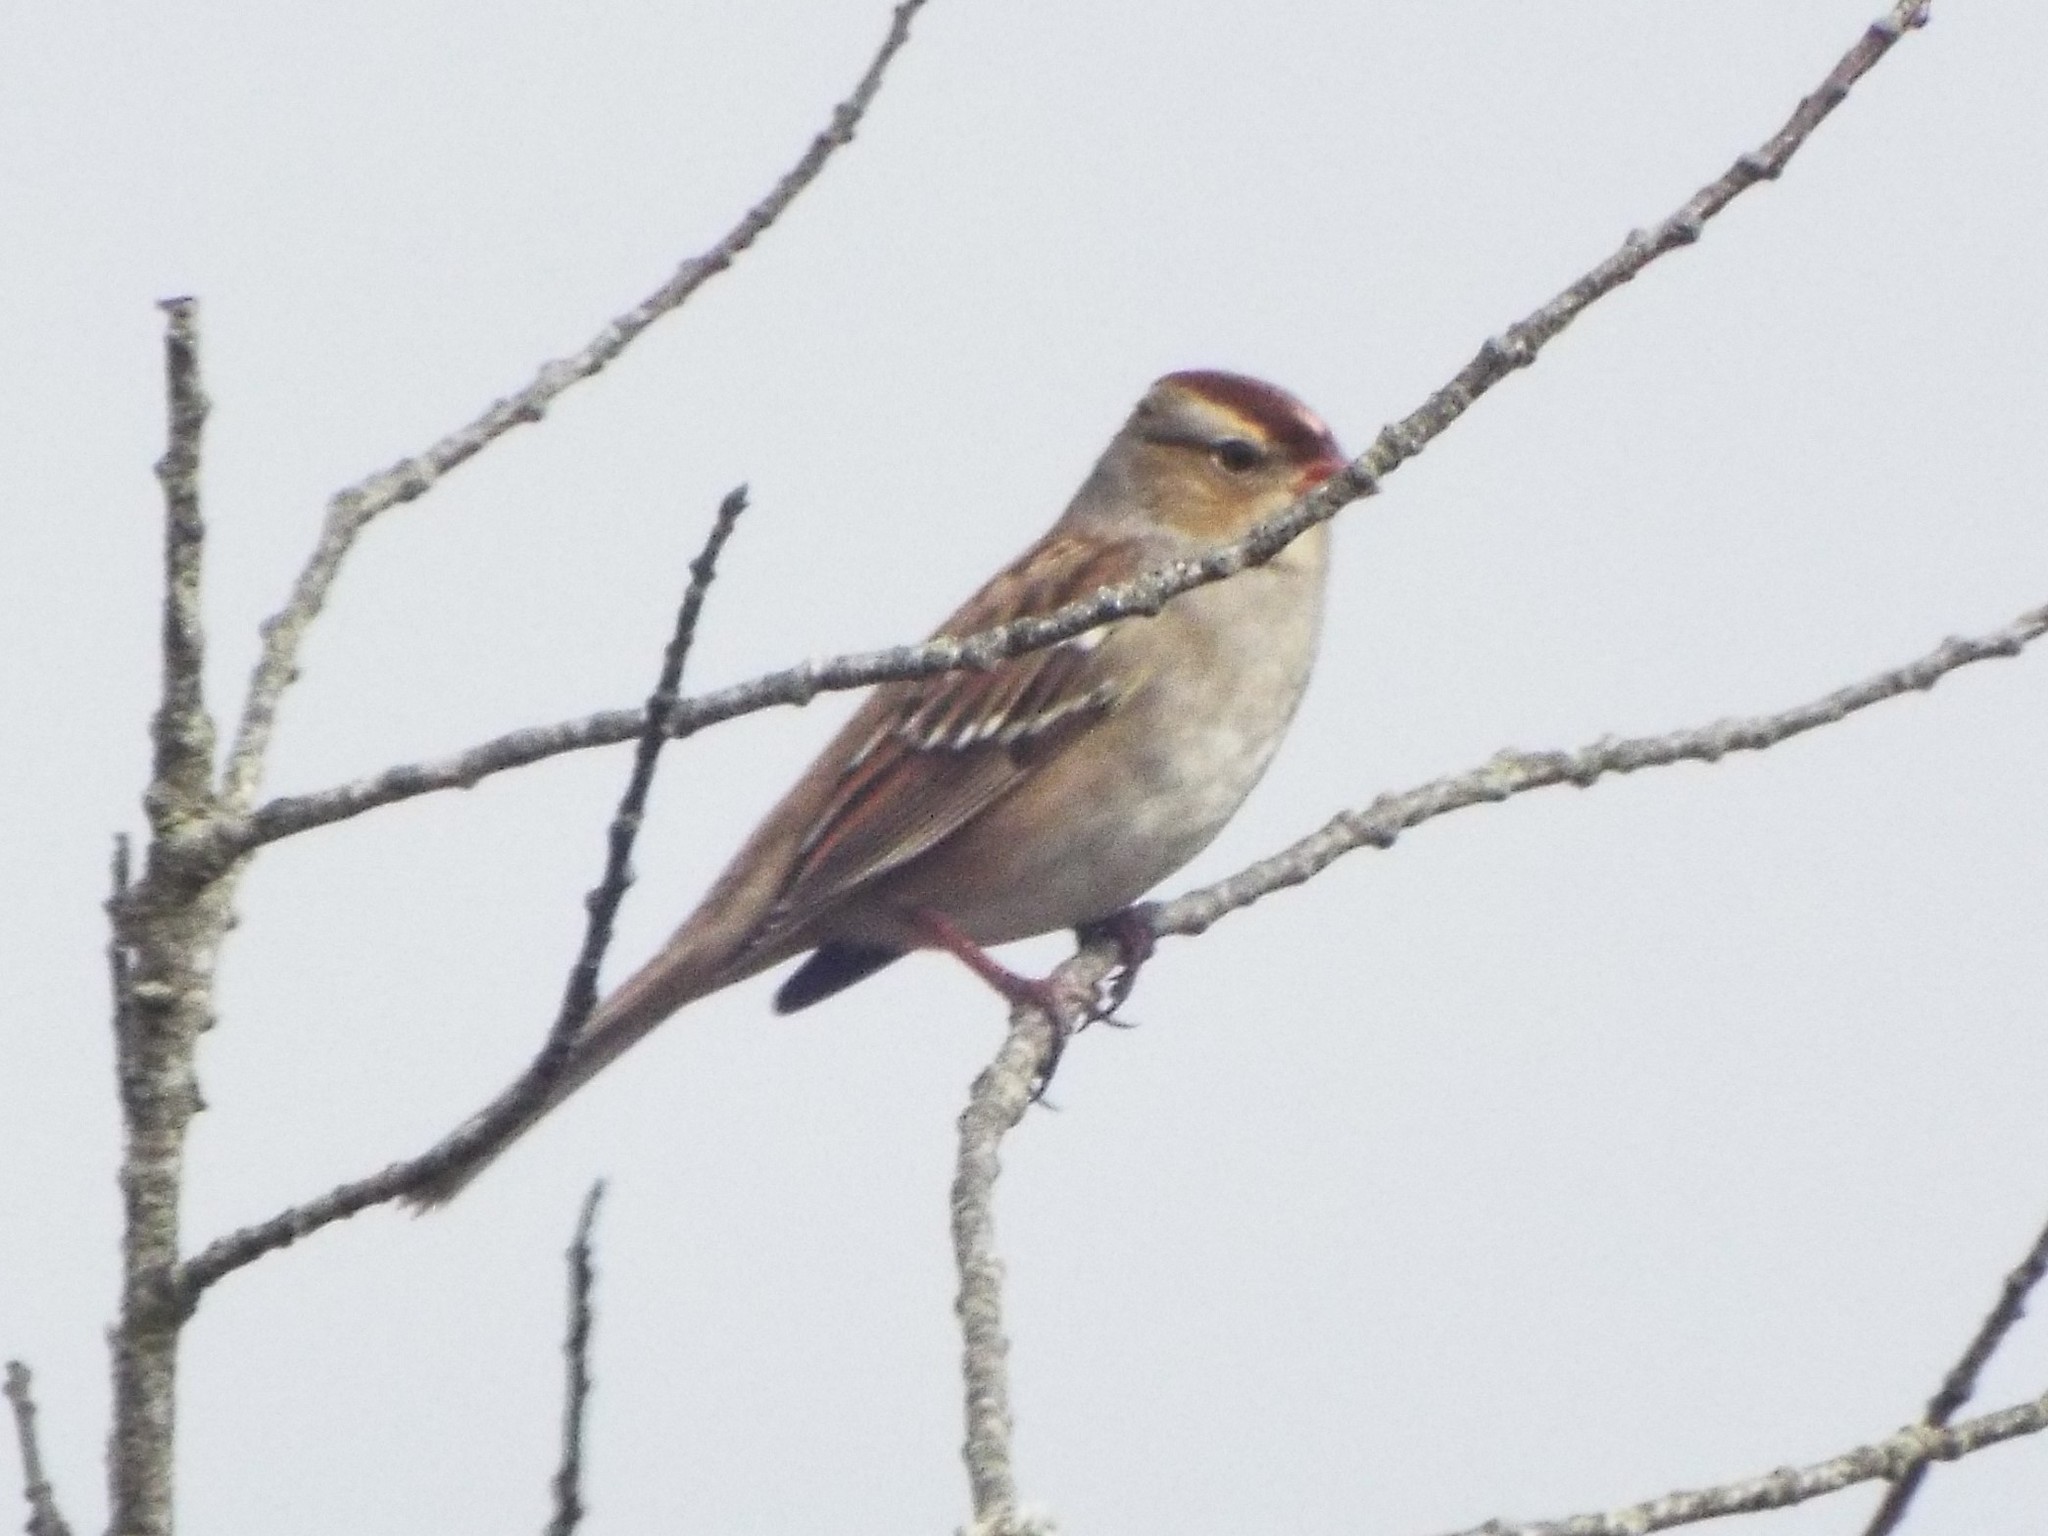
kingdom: Animalia
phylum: Chordata
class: Aves
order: Passeriformes
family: Passerellidae
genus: Zonotrichia
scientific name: Zonotrichia leucophrys
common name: White-crowned sparrow
